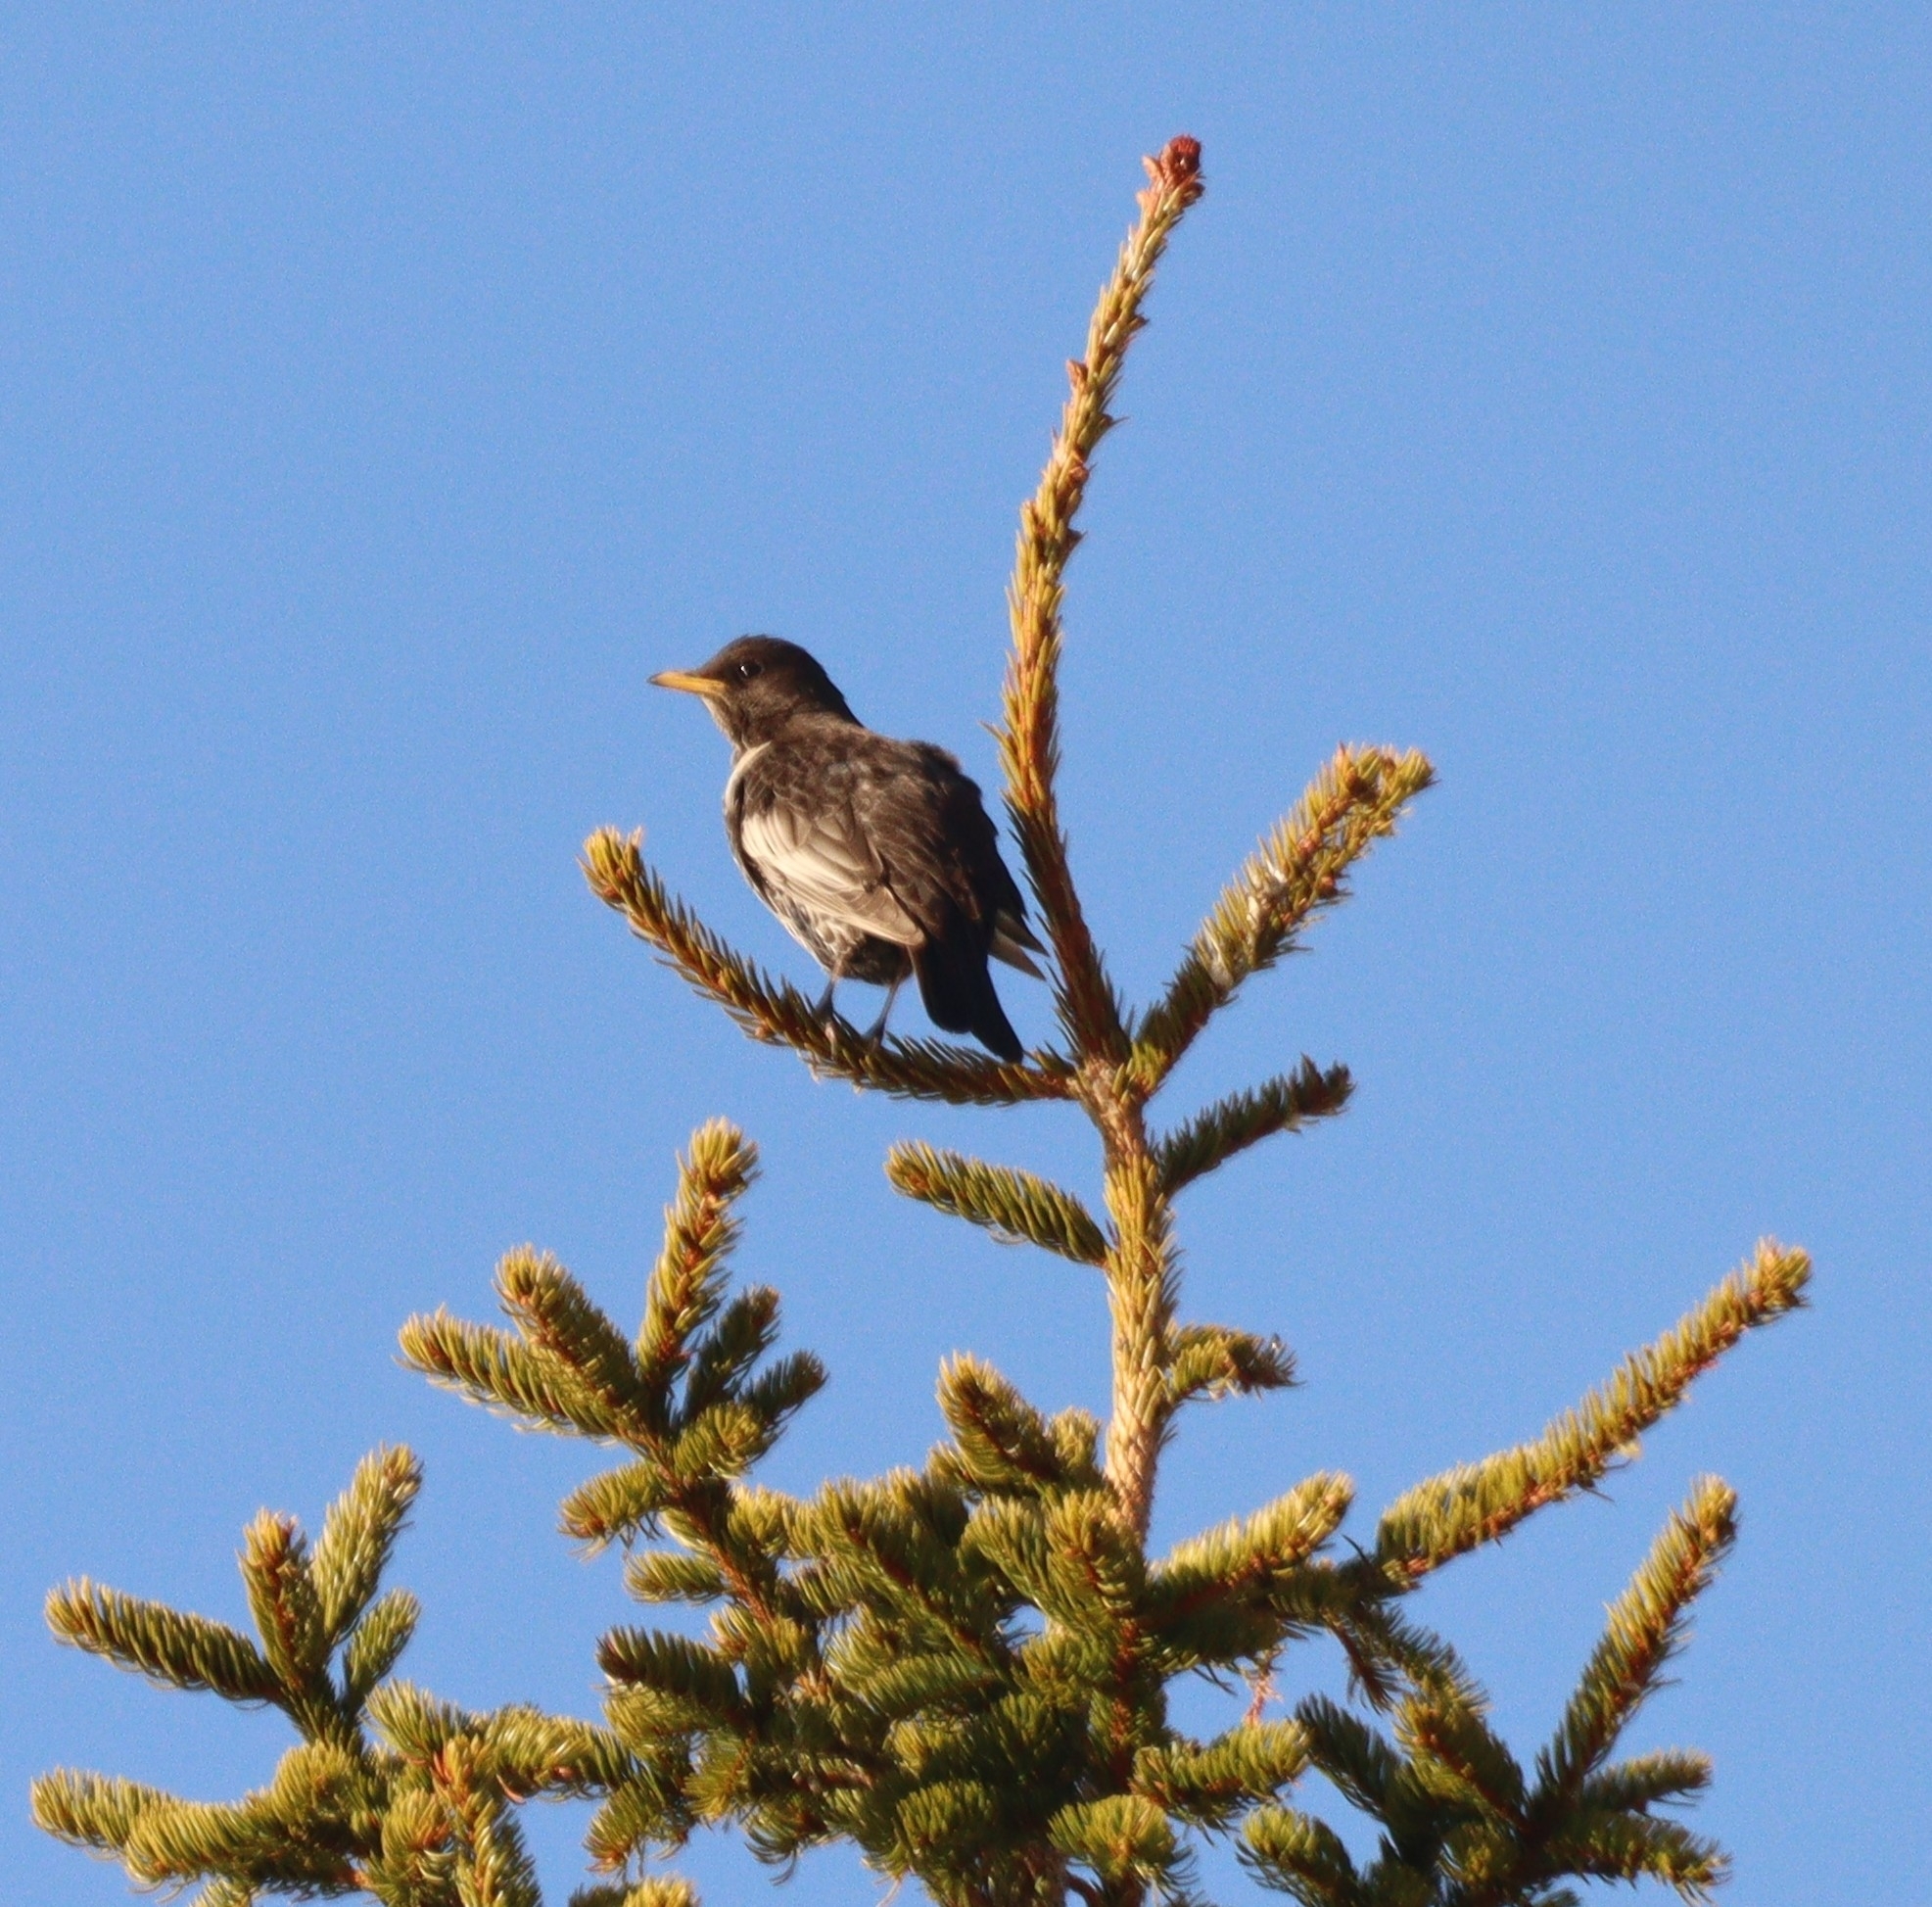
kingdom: Animalia
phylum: Chordata
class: Aves
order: Passeriformes
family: Turdidae
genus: Turdus
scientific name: Turdus torquatus
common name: Ring ouzel
